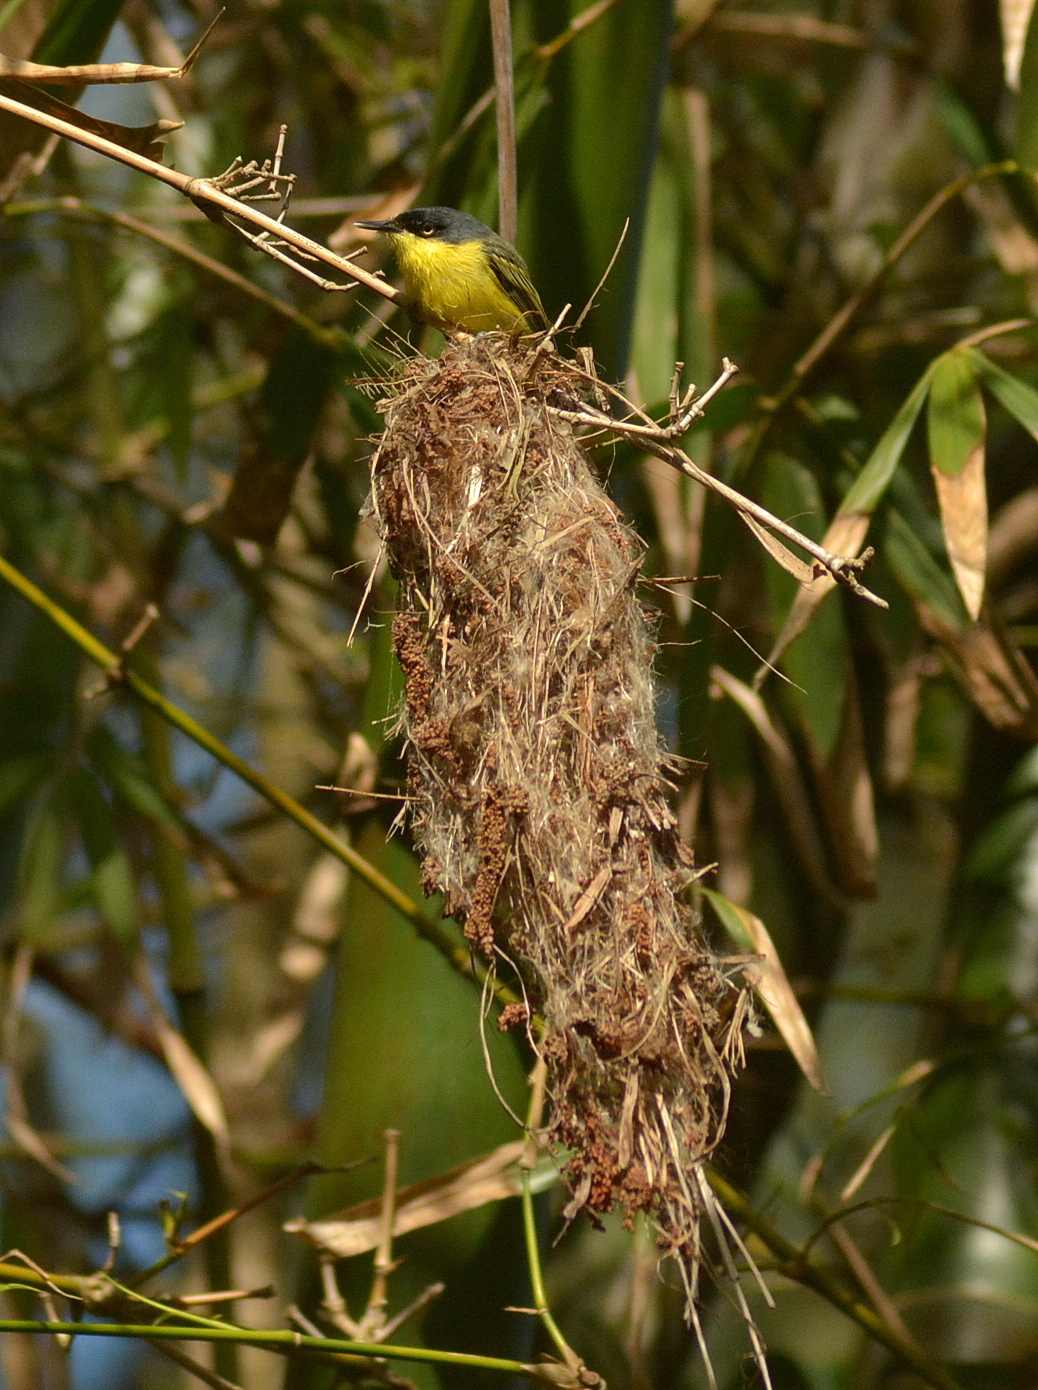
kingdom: Animalia
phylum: Chordata
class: Aves
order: Passeriformes
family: Tyrannidae
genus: Todirostrum
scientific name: Todirostrum cinereum
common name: Common tody-flycatcher
